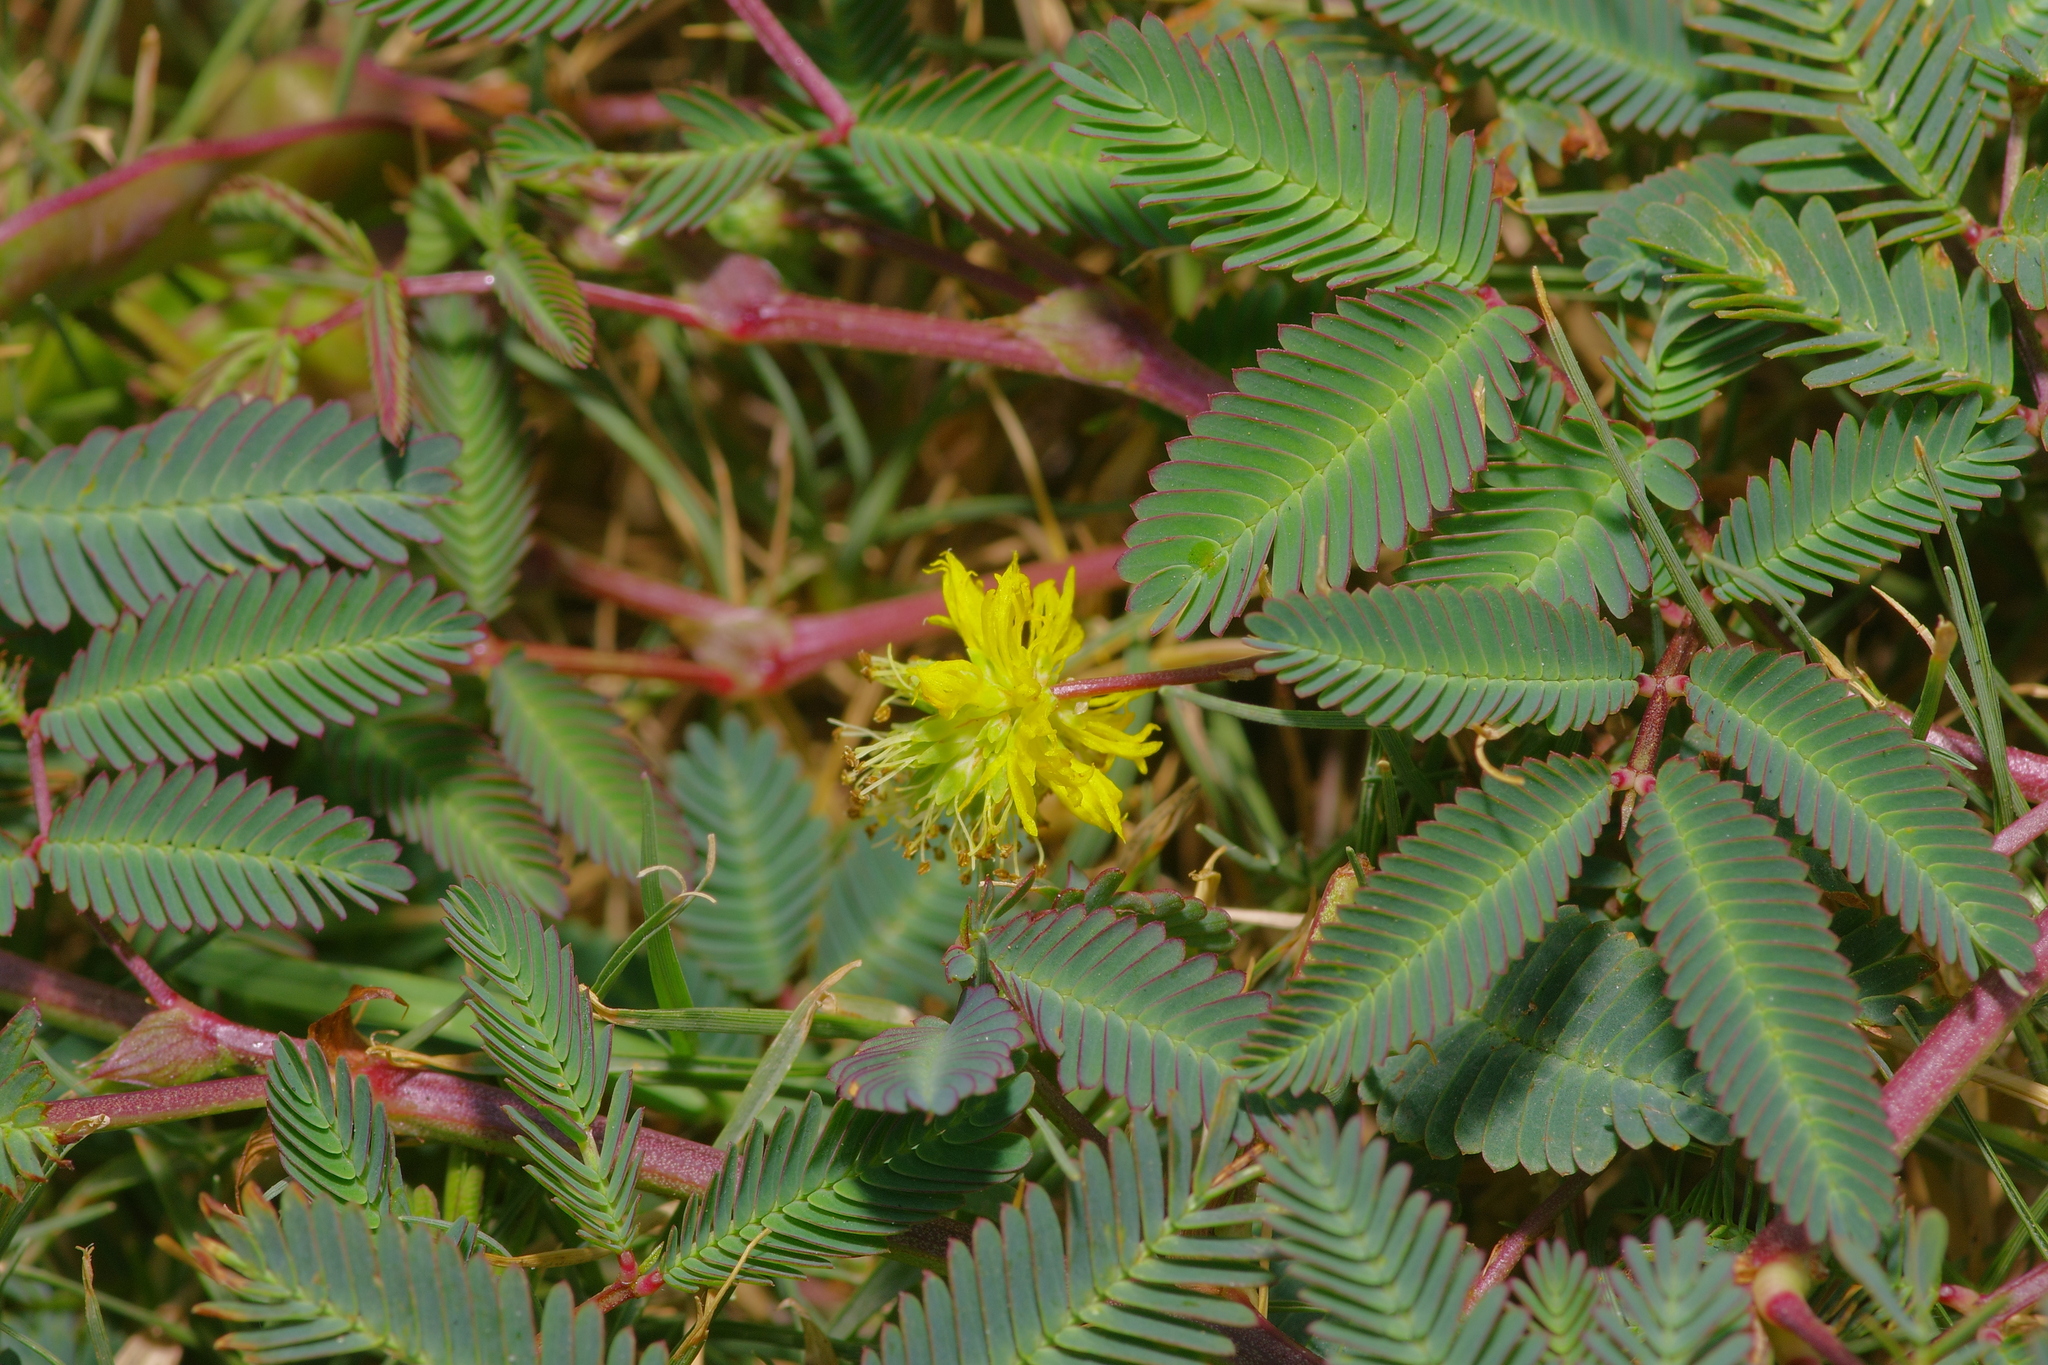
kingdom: Plantae
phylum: Tracheophyta
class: Magnoliopsida
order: Fabales
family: Fabaceae
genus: Neptunia
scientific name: Neptunia pubescens
